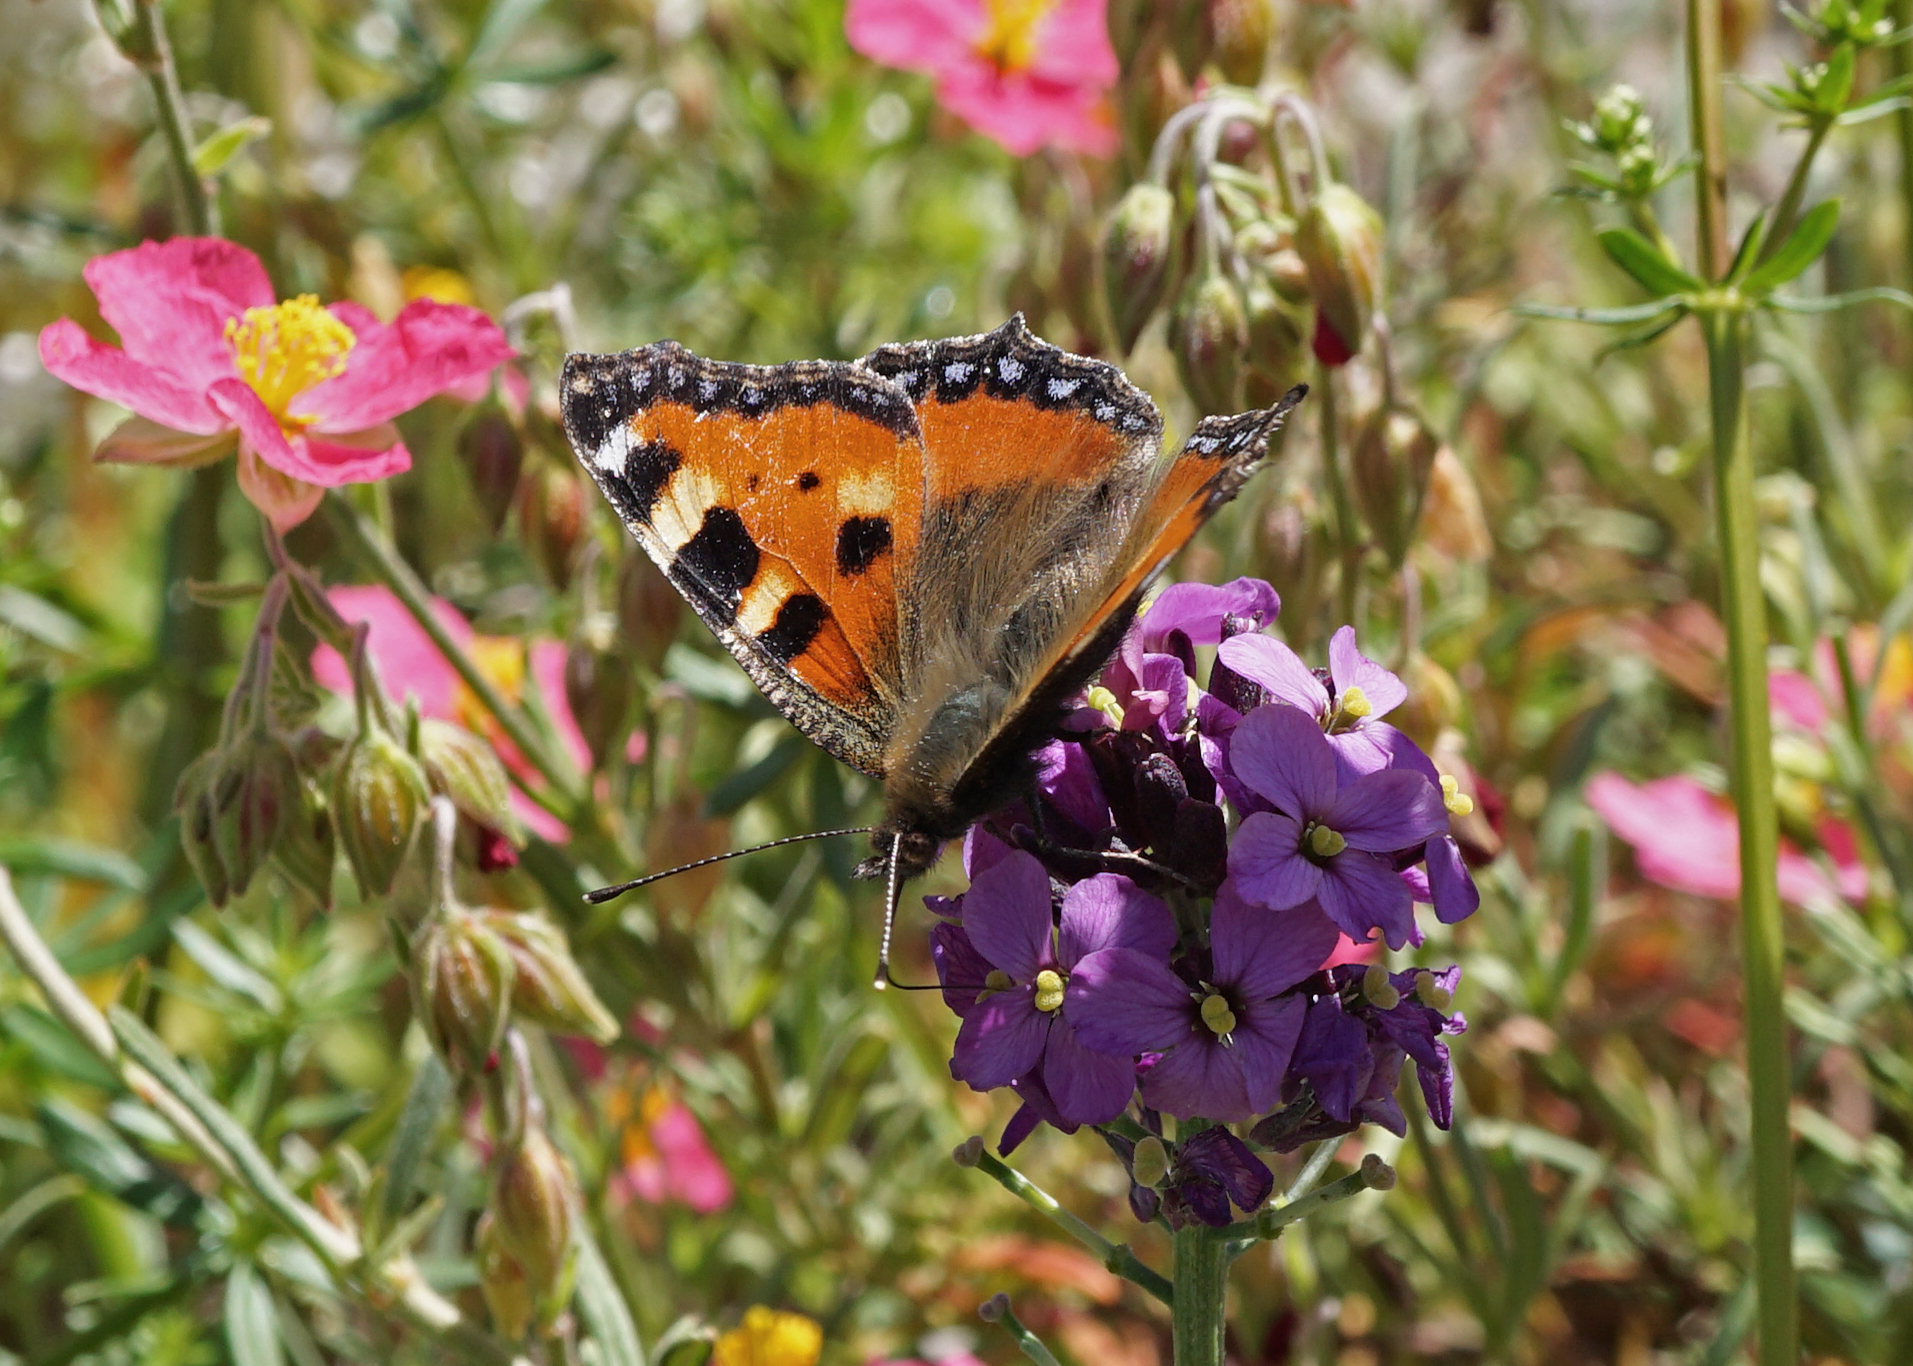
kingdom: Animalia
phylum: Arthropoda
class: Insecta
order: Lepidoptera
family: Nymphalidae
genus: Aglais
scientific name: Aglais urticae
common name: Small tortoiseshell
